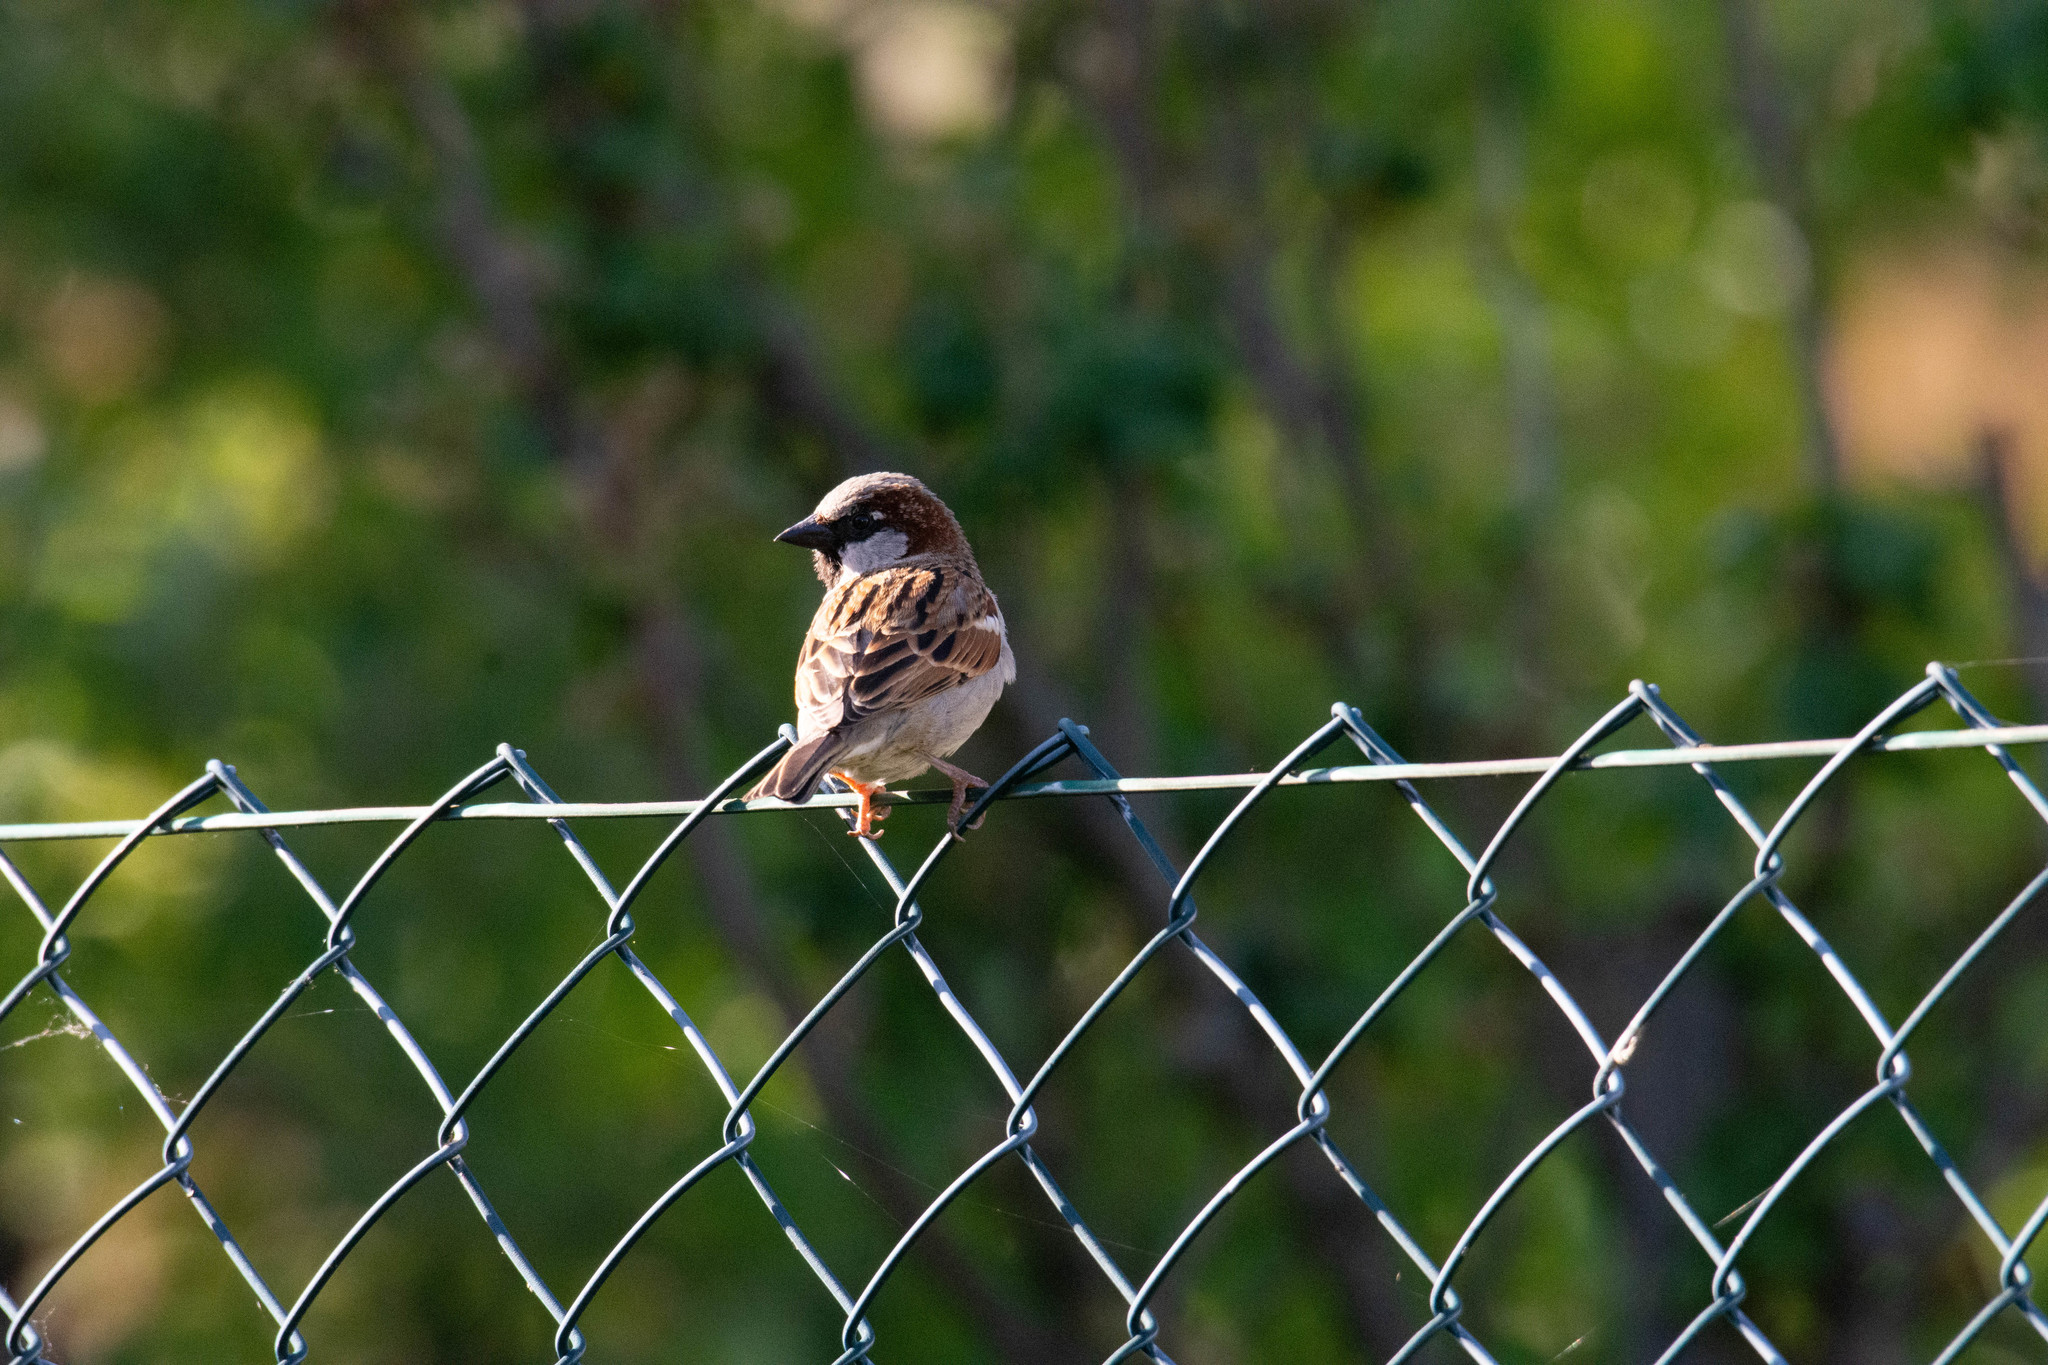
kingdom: Animalia
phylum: Chordata
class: Aves
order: Passeriformes
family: Passeridae
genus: Passer
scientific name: Passer domesticus
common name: House sparrow
